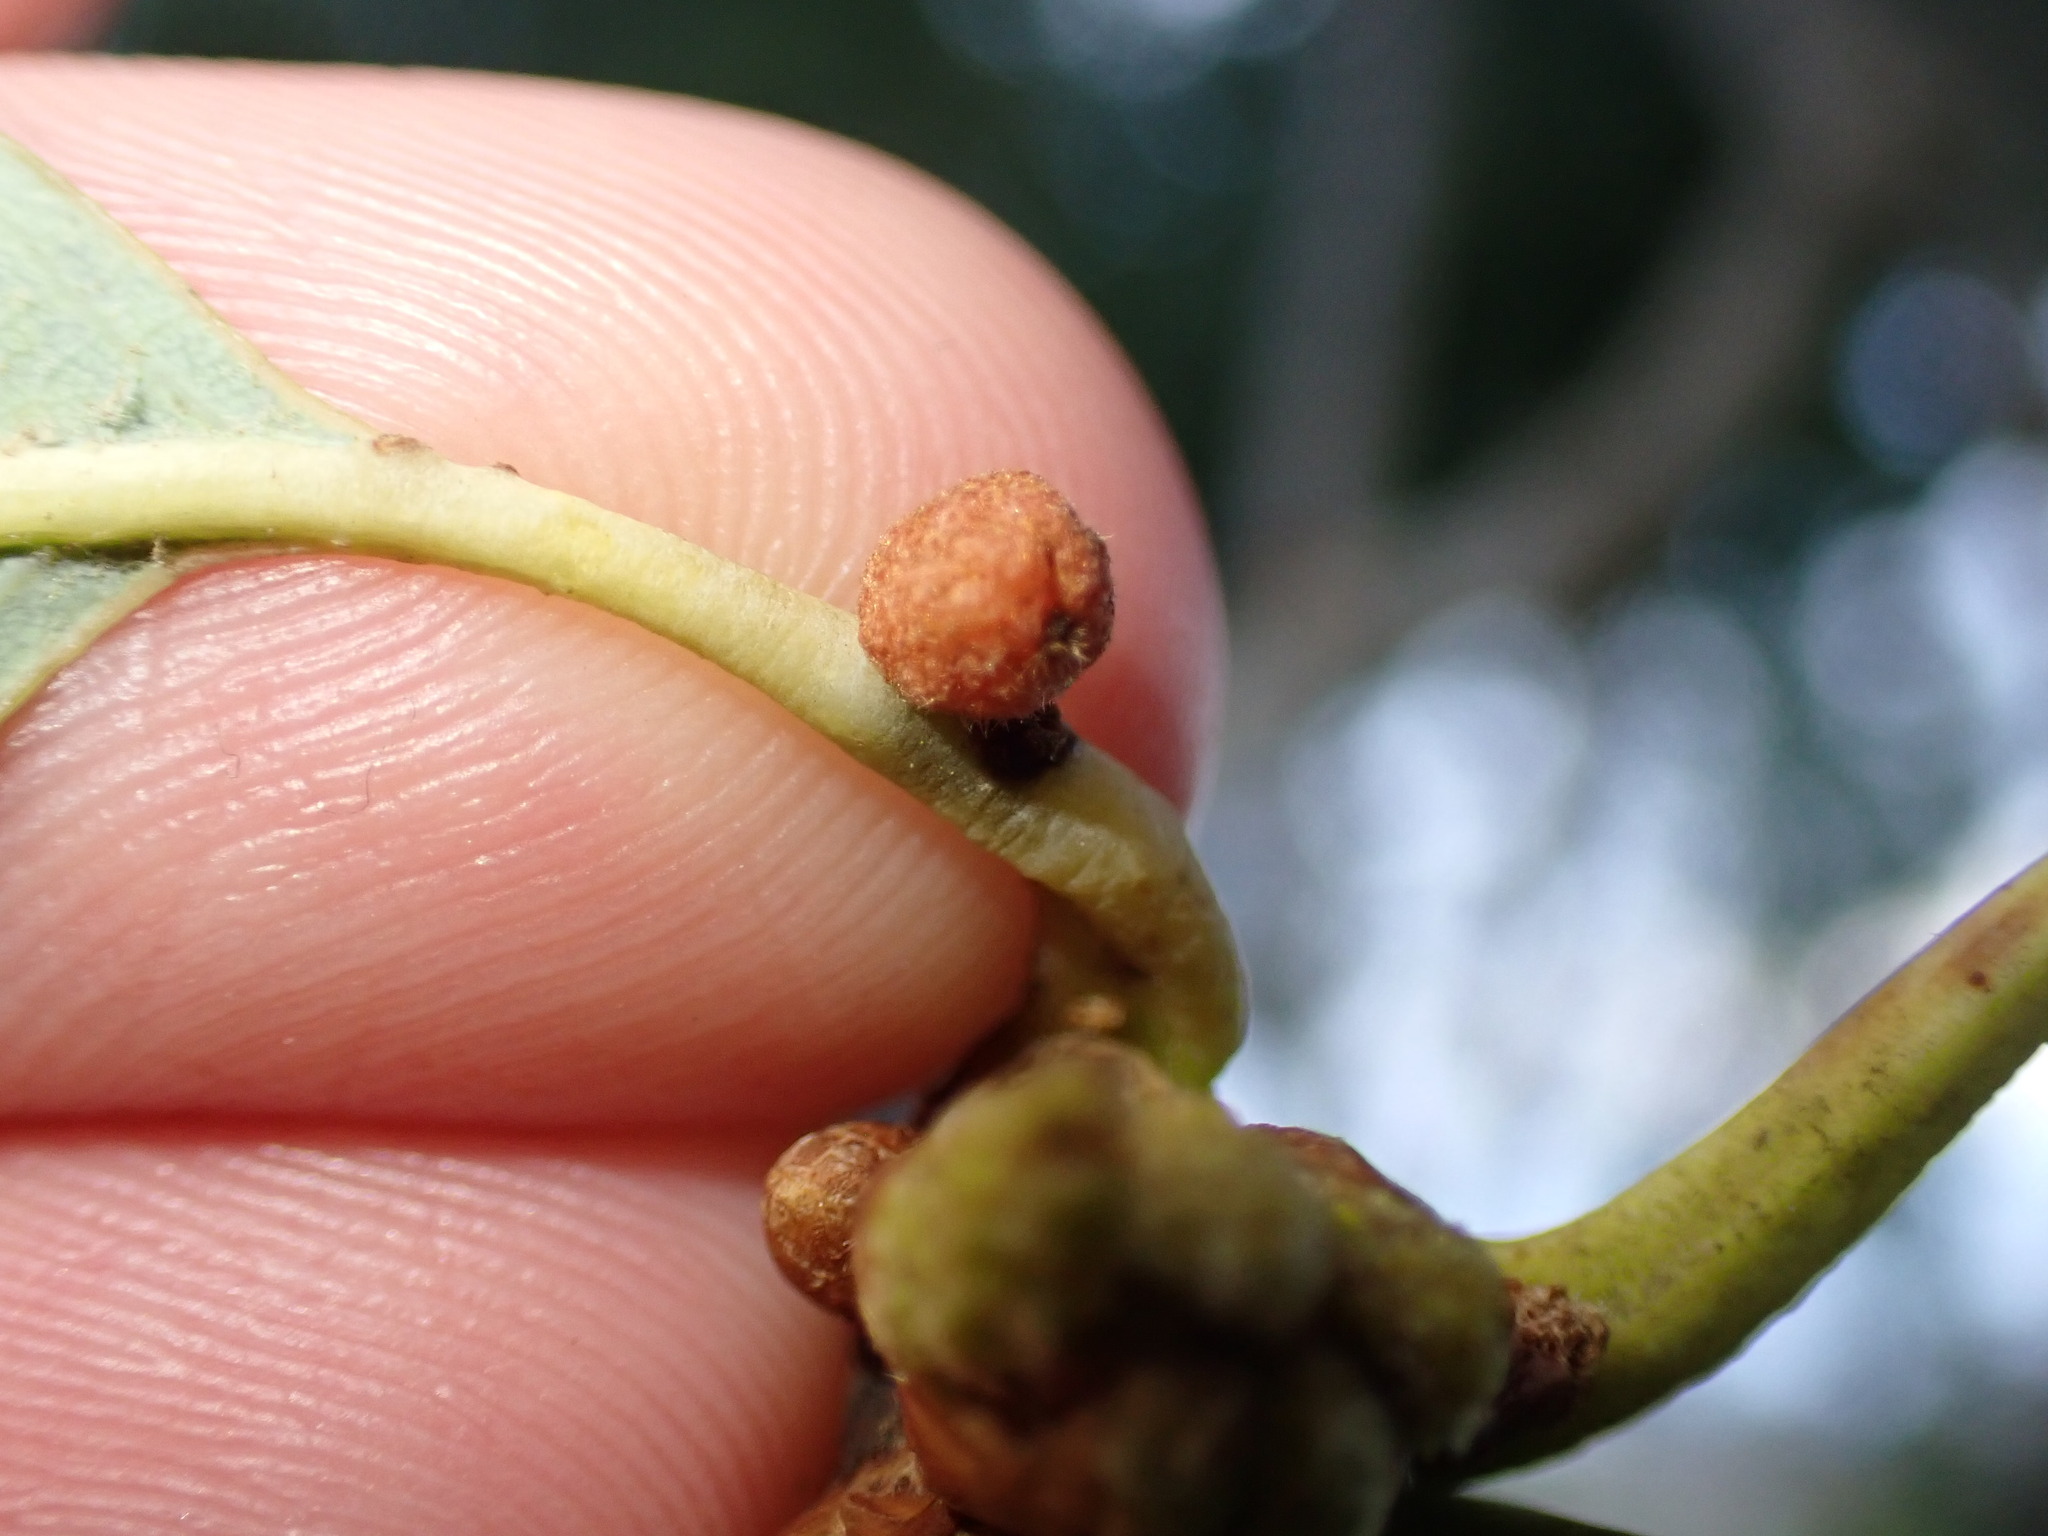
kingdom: Animalia
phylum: Arthropoda
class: Insecta
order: Hymenoptera
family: Cynipidae
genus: Andricus
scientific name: Andricus
